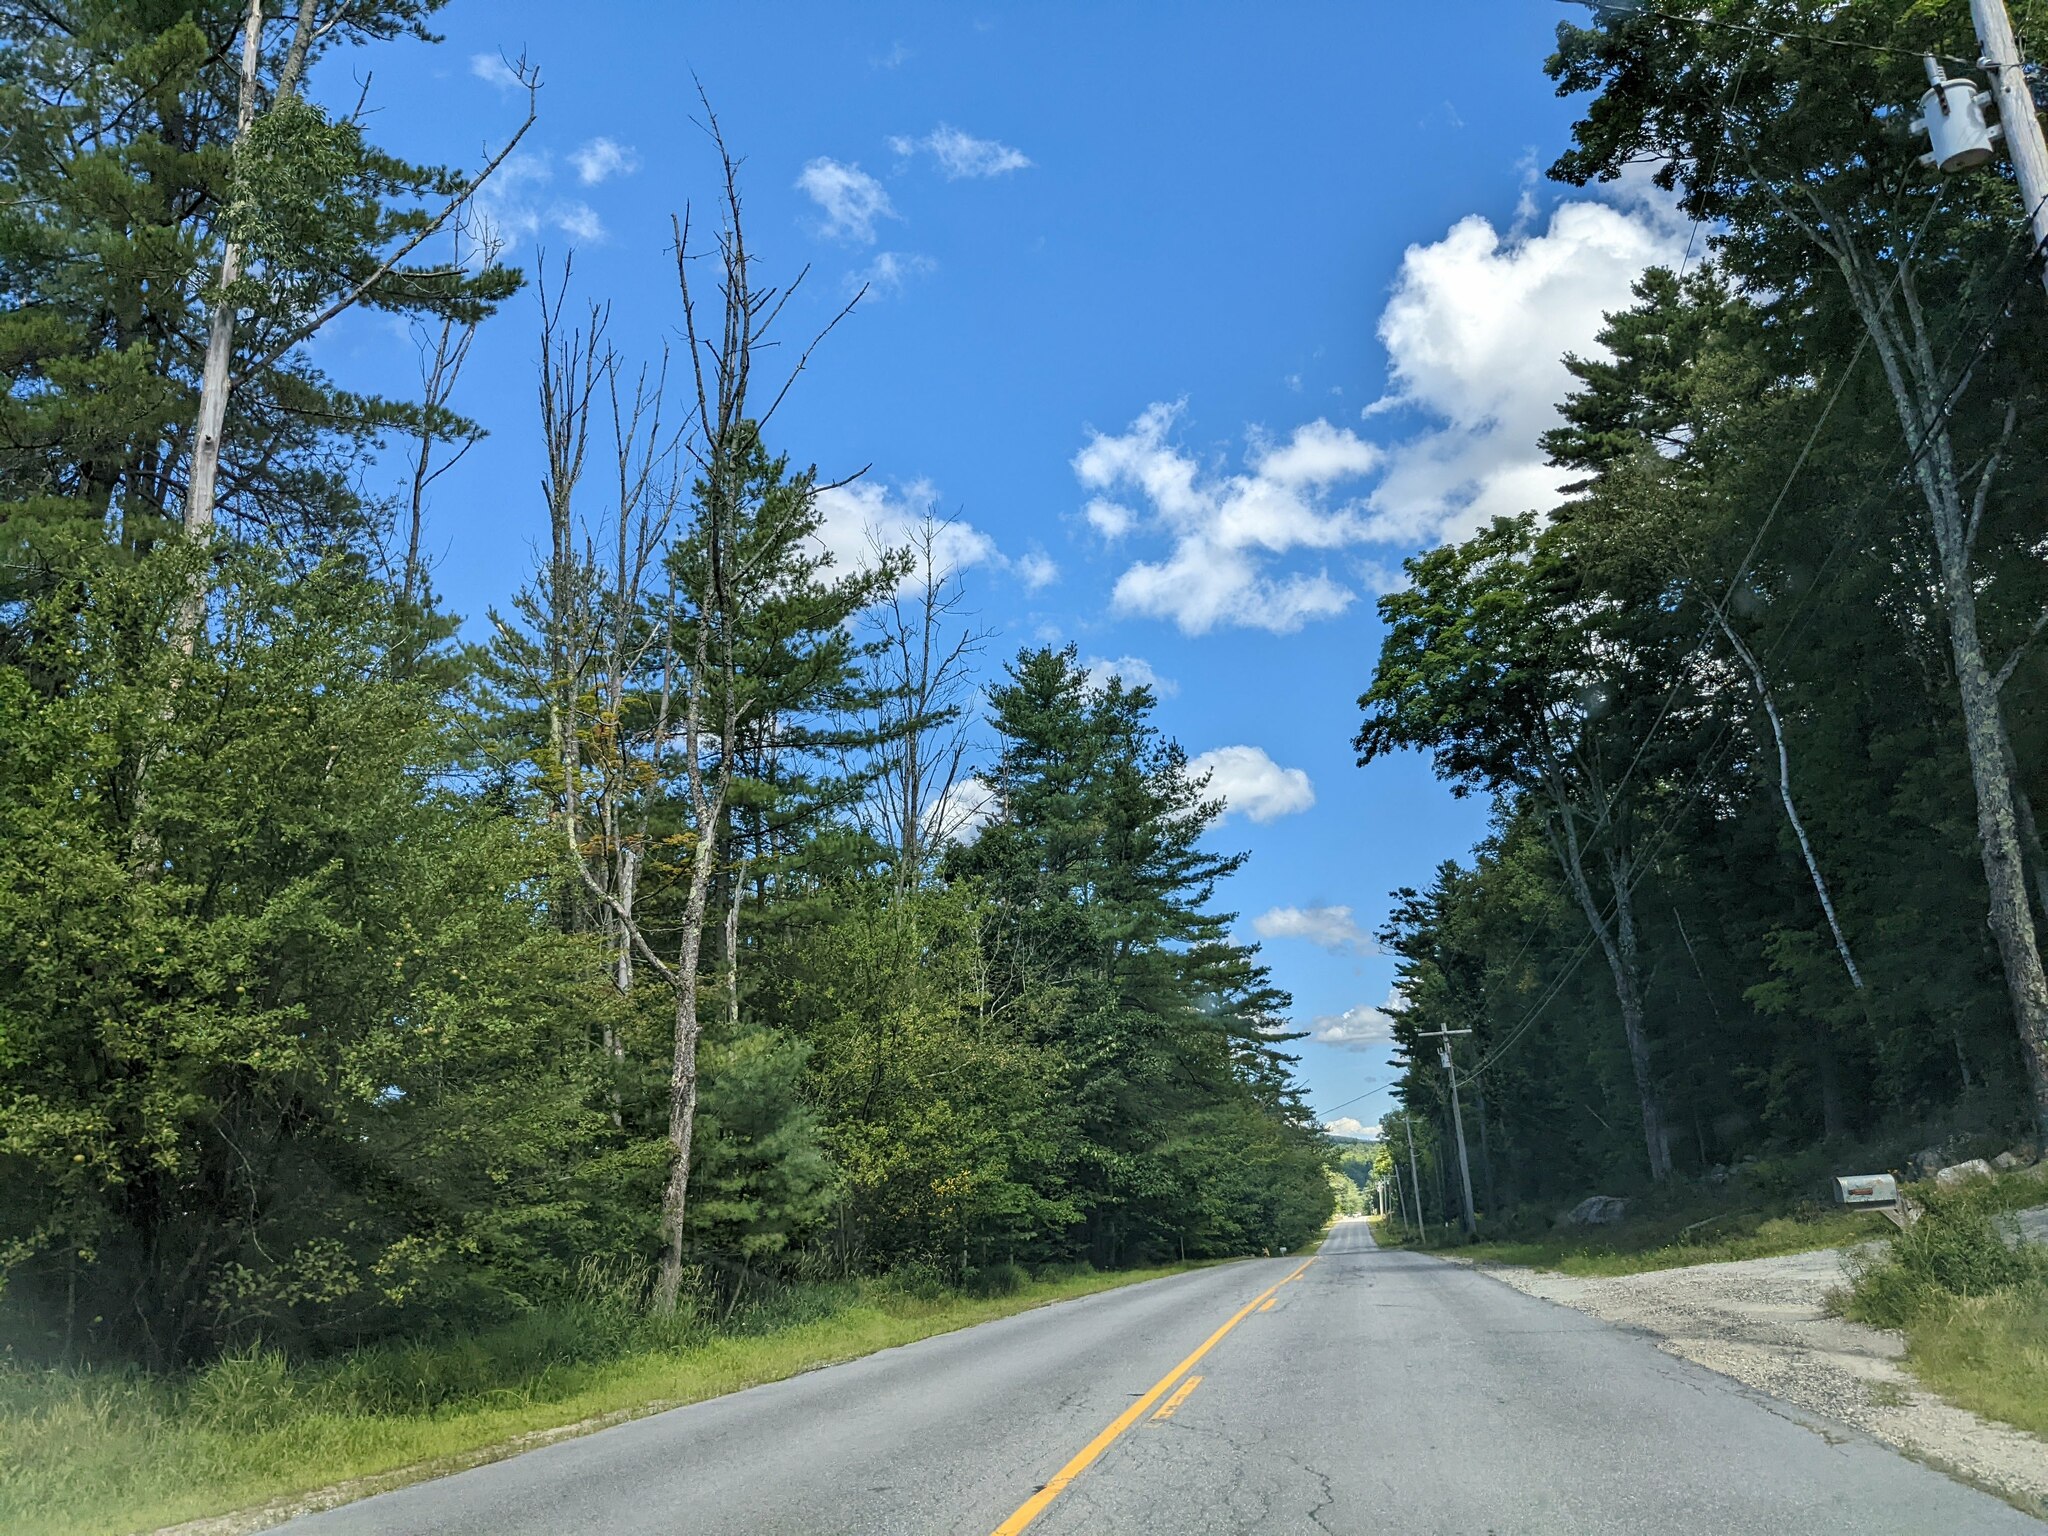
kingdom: Plantae
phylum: Tracheophyta
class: Pinopsida
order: Pinales
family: Pinaceae
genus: Pinus
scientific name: Pinus strobus
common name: Weymouth pine
